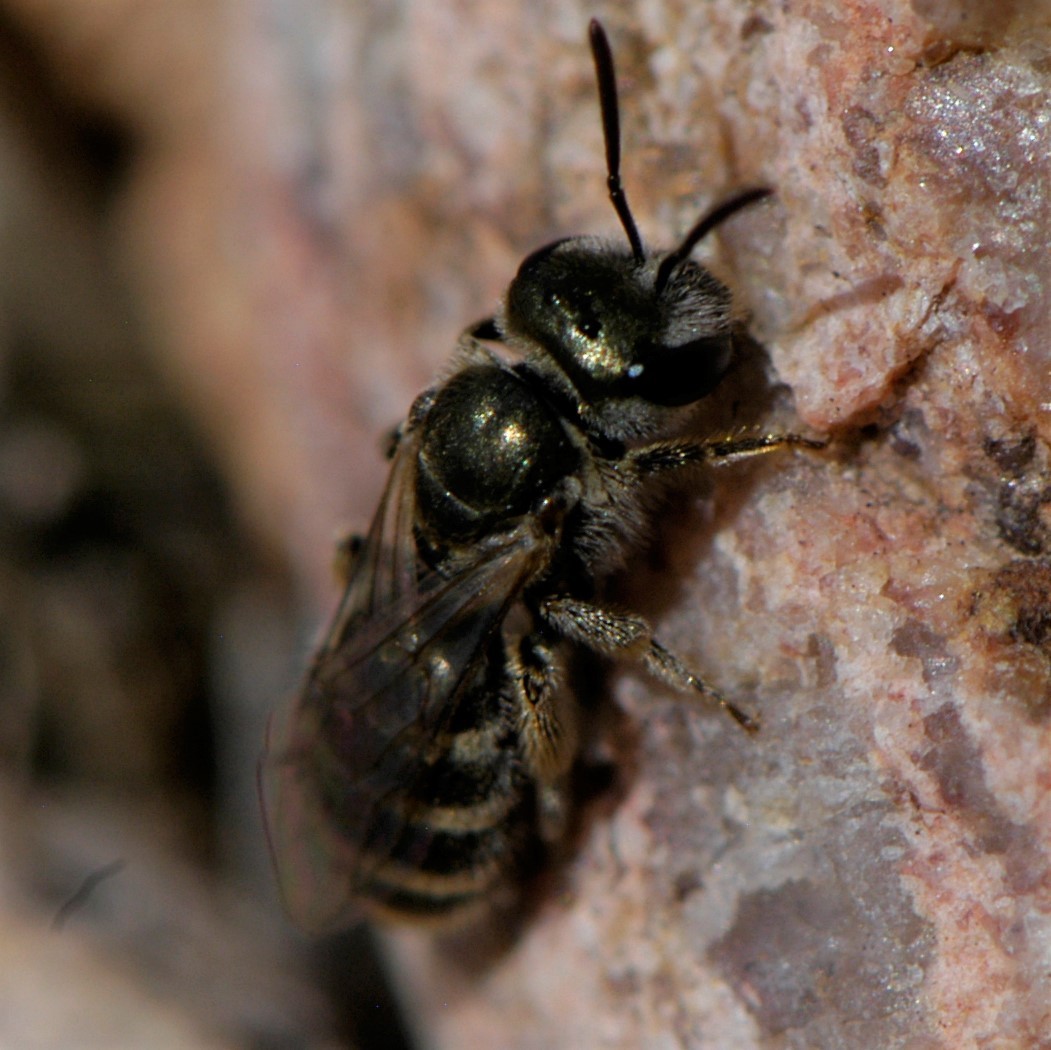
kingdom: Animalia
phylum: Arthropoda
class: Insecta
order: Hymenoptera
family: Halictidae
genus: Halictus
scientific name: Halictus tripartitus
